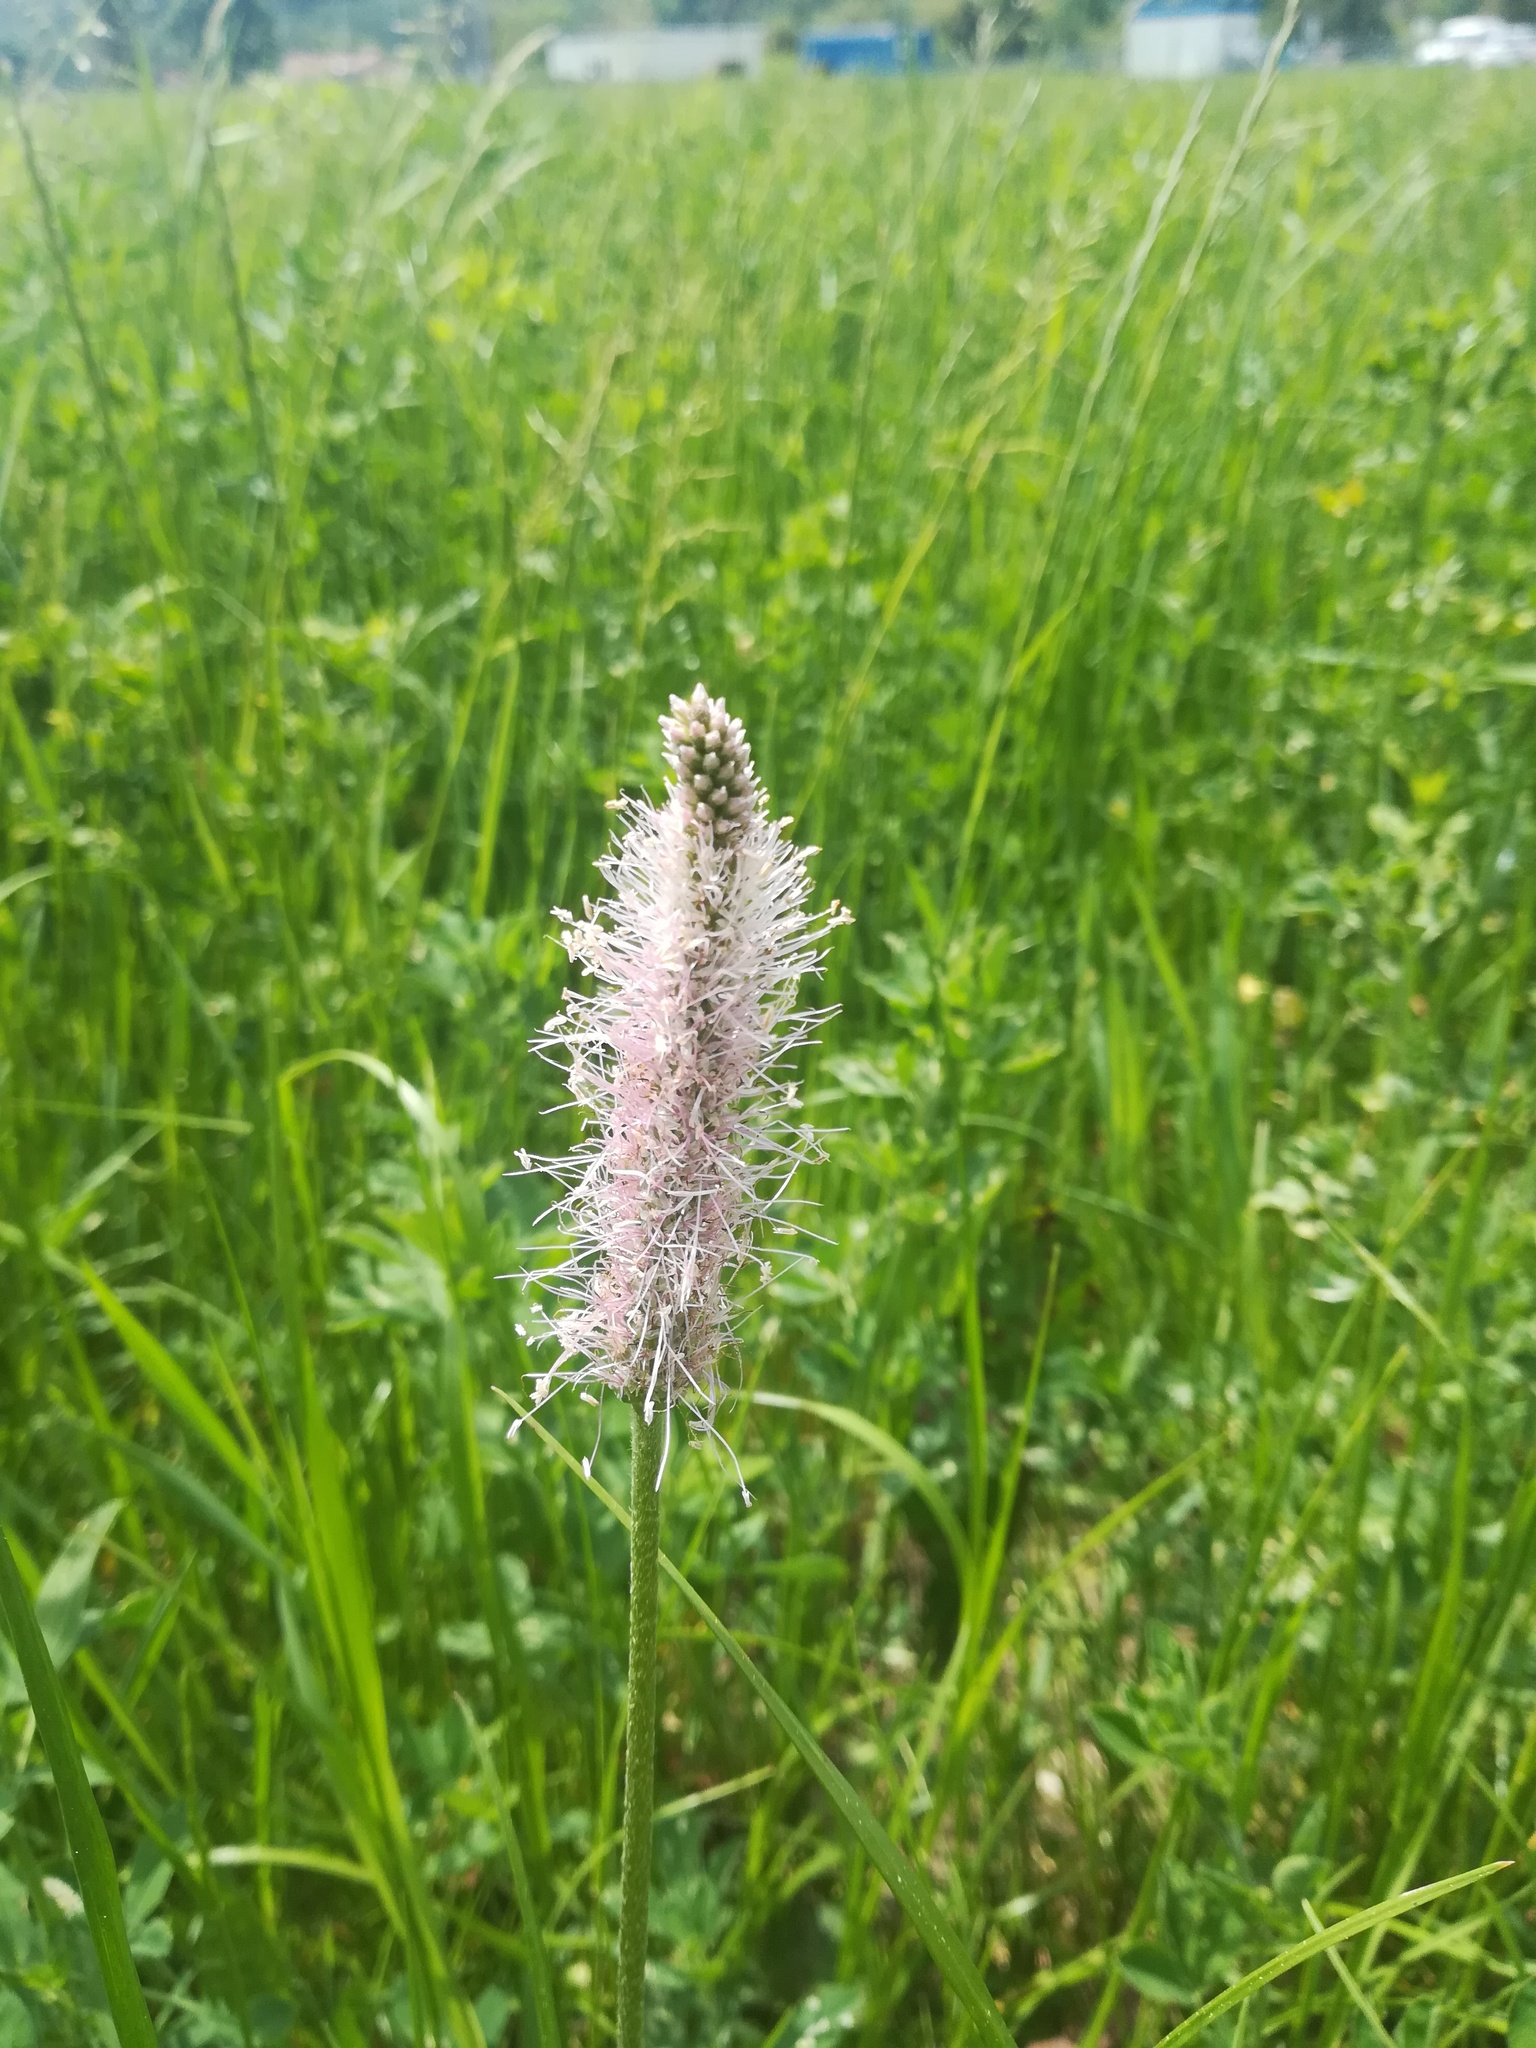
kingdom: Plantae
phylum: Tracheophyta
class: Magnoliopsida
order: Lamiales
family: Plantaginaceae
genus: Plantago
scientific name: Plantago media
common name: Hoary plantain
